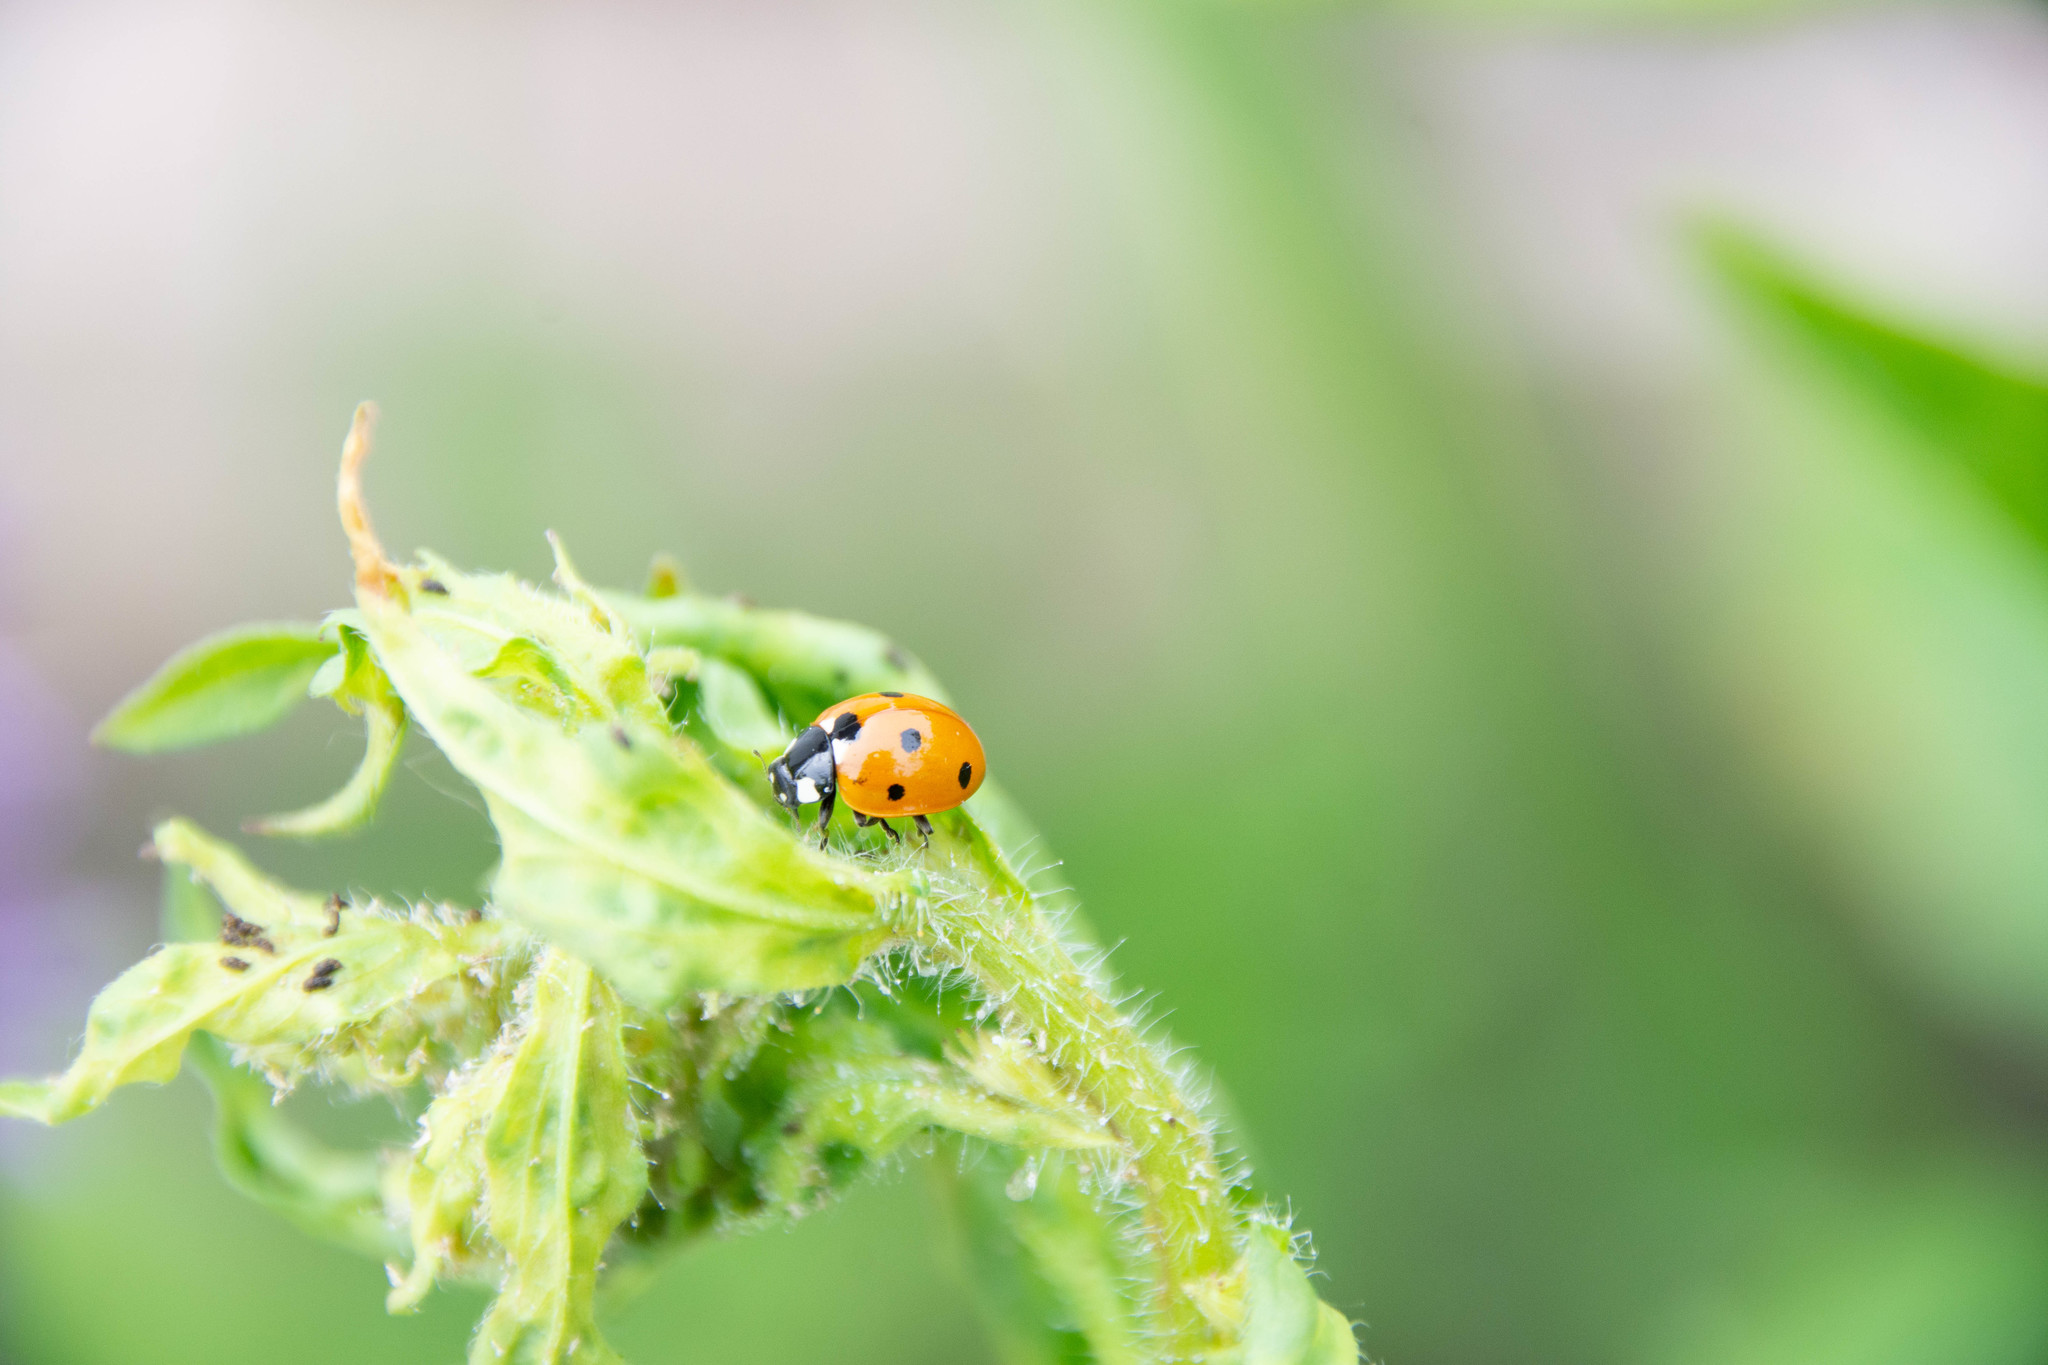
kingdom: Animalia
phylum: Arthropoda
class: Insecta
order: Coleoptera
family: Coccinellidae
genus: Coccinella
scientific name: Coccinella septempunctata
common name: Sevenspotted lady beetle
